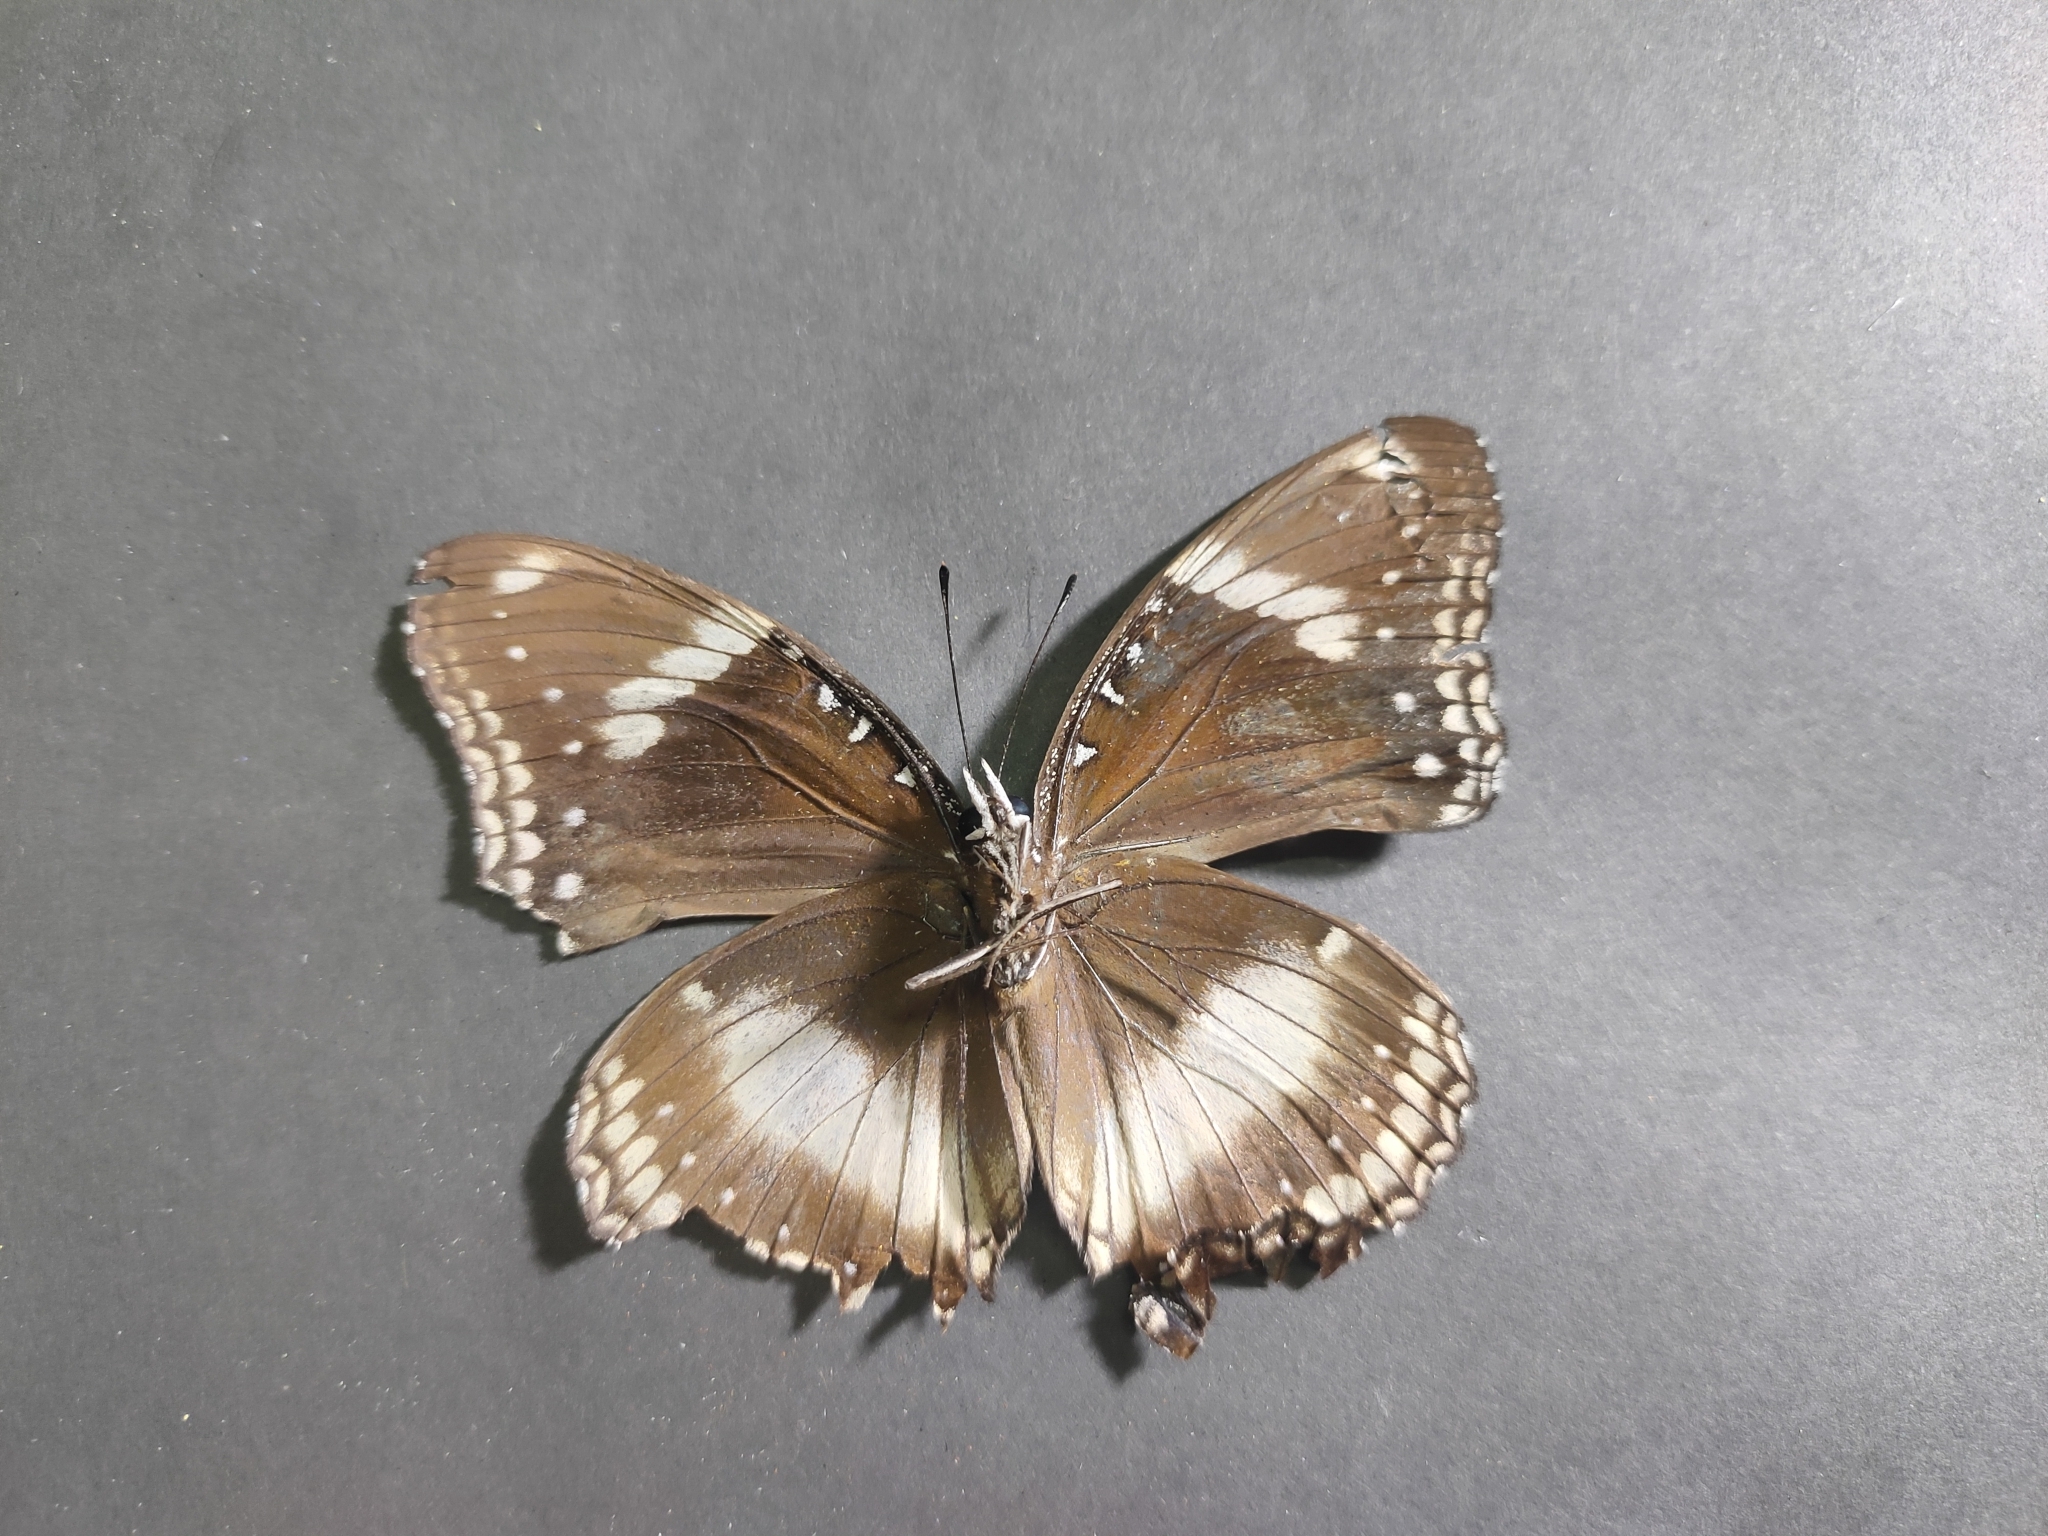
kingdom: Animalia
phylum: Arthropoda
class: Insecta
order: Lepidoptera
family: Nymphalidae
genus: Hypolimnas
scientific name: Hypolimnas bolina
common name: Great eggfly
